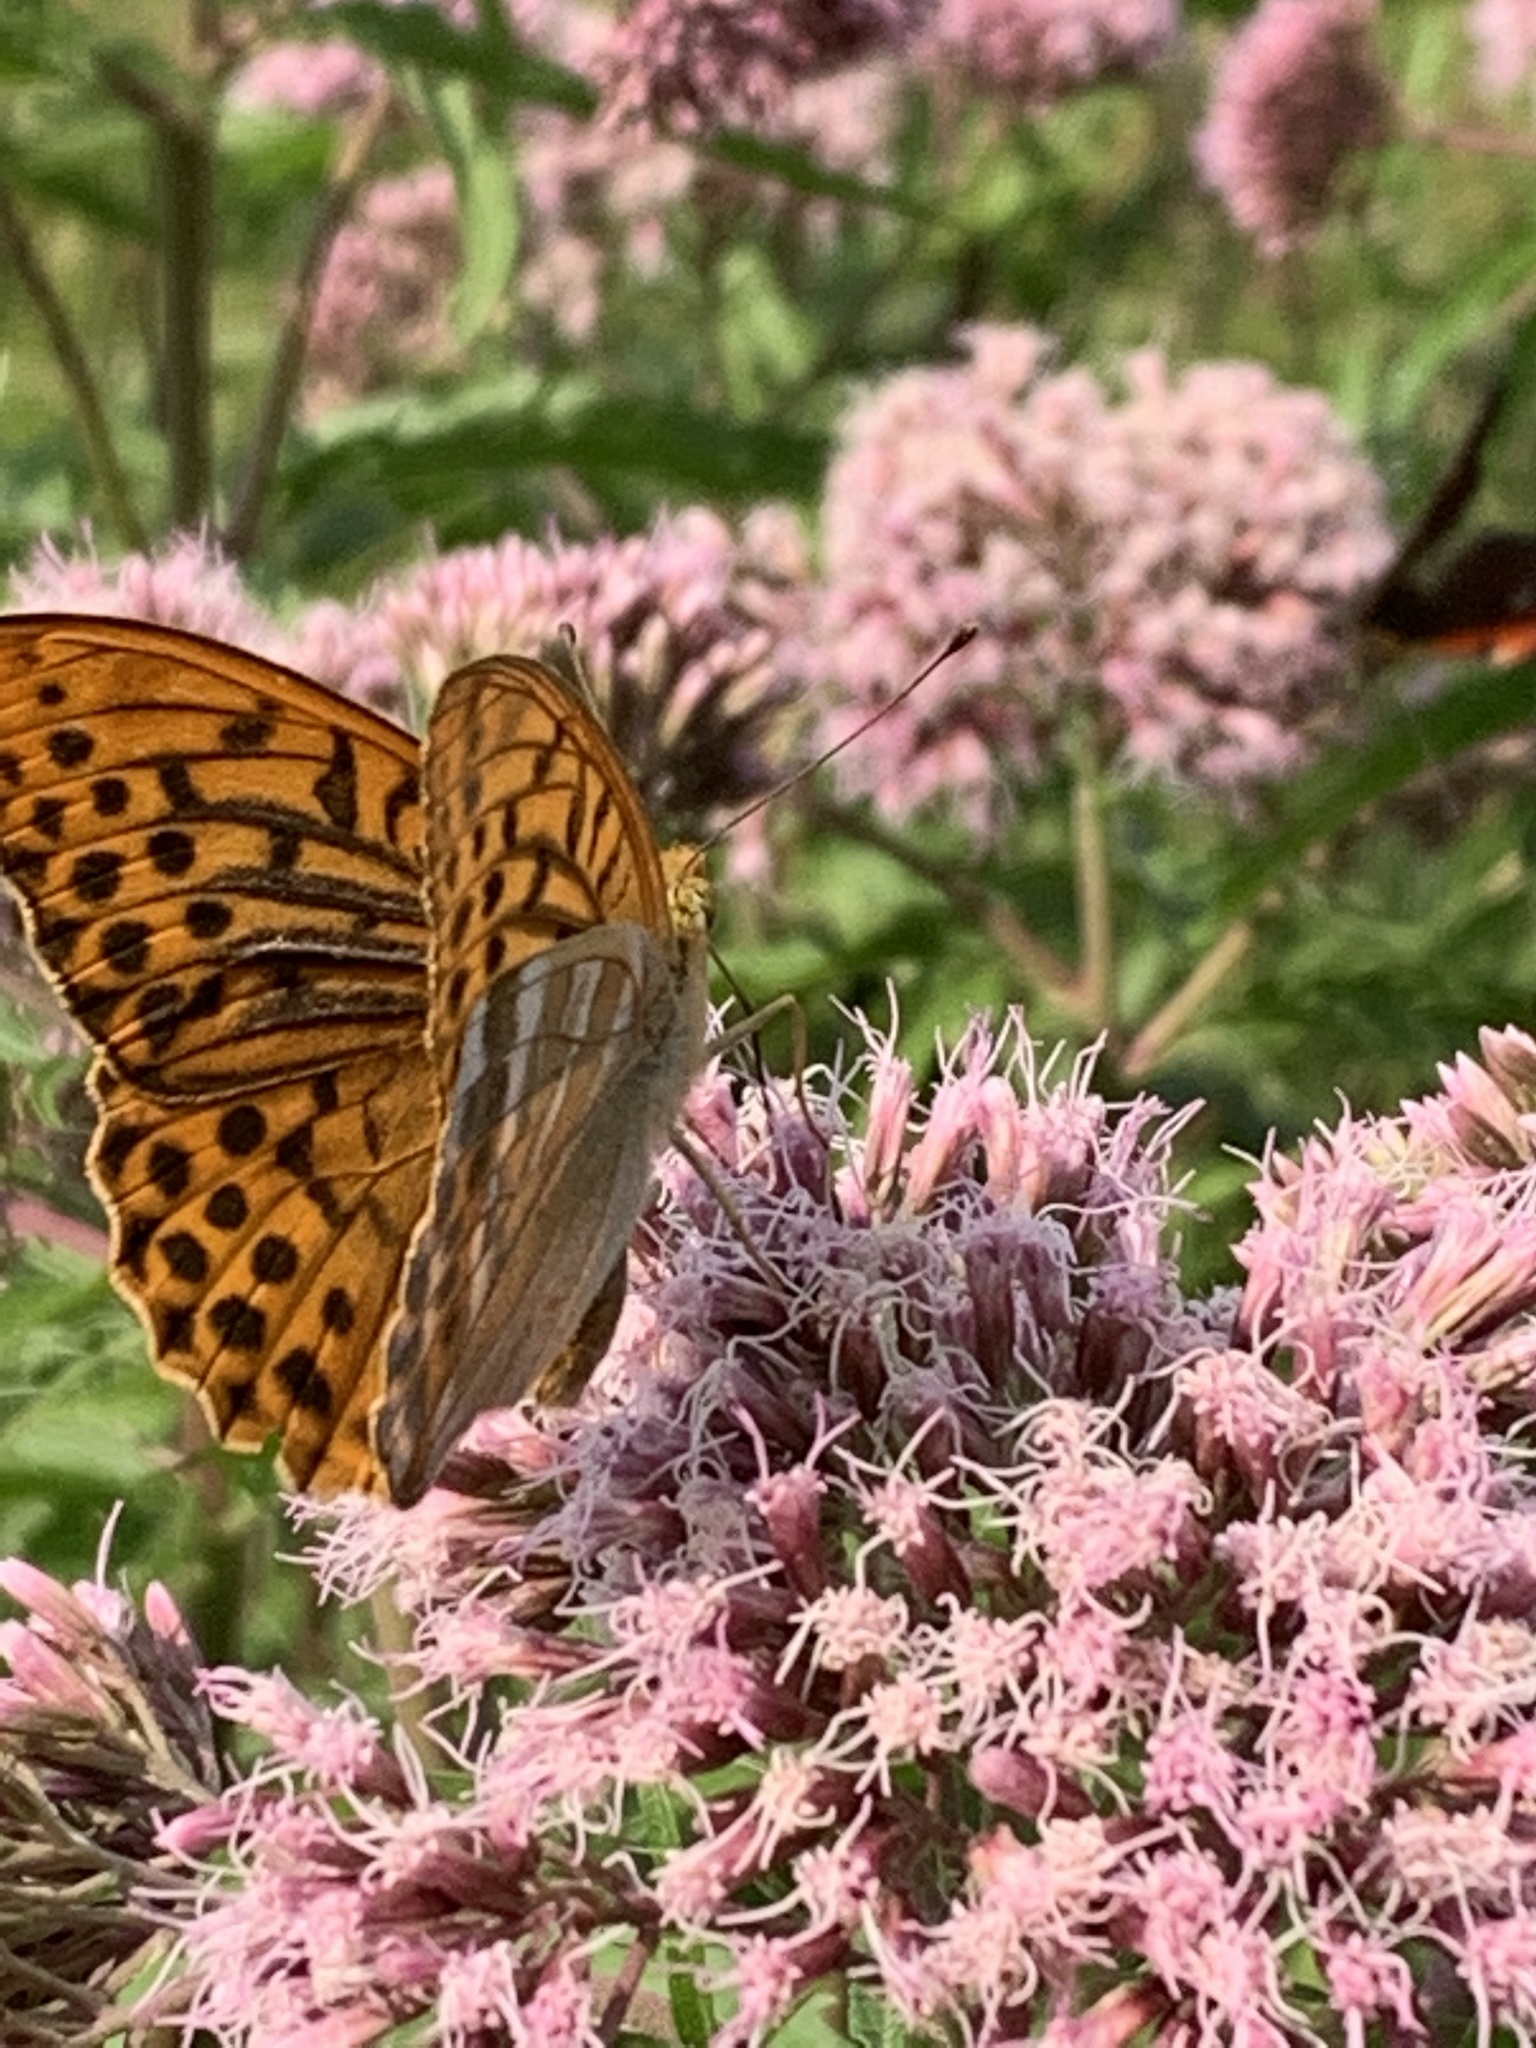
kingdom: Animalia
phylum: Arthropoda
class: Insecta
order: Lepidoptera
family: Nymphalidae
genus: Argynnis
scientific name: Argynnis paphia
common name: Silver-washed fritillary
